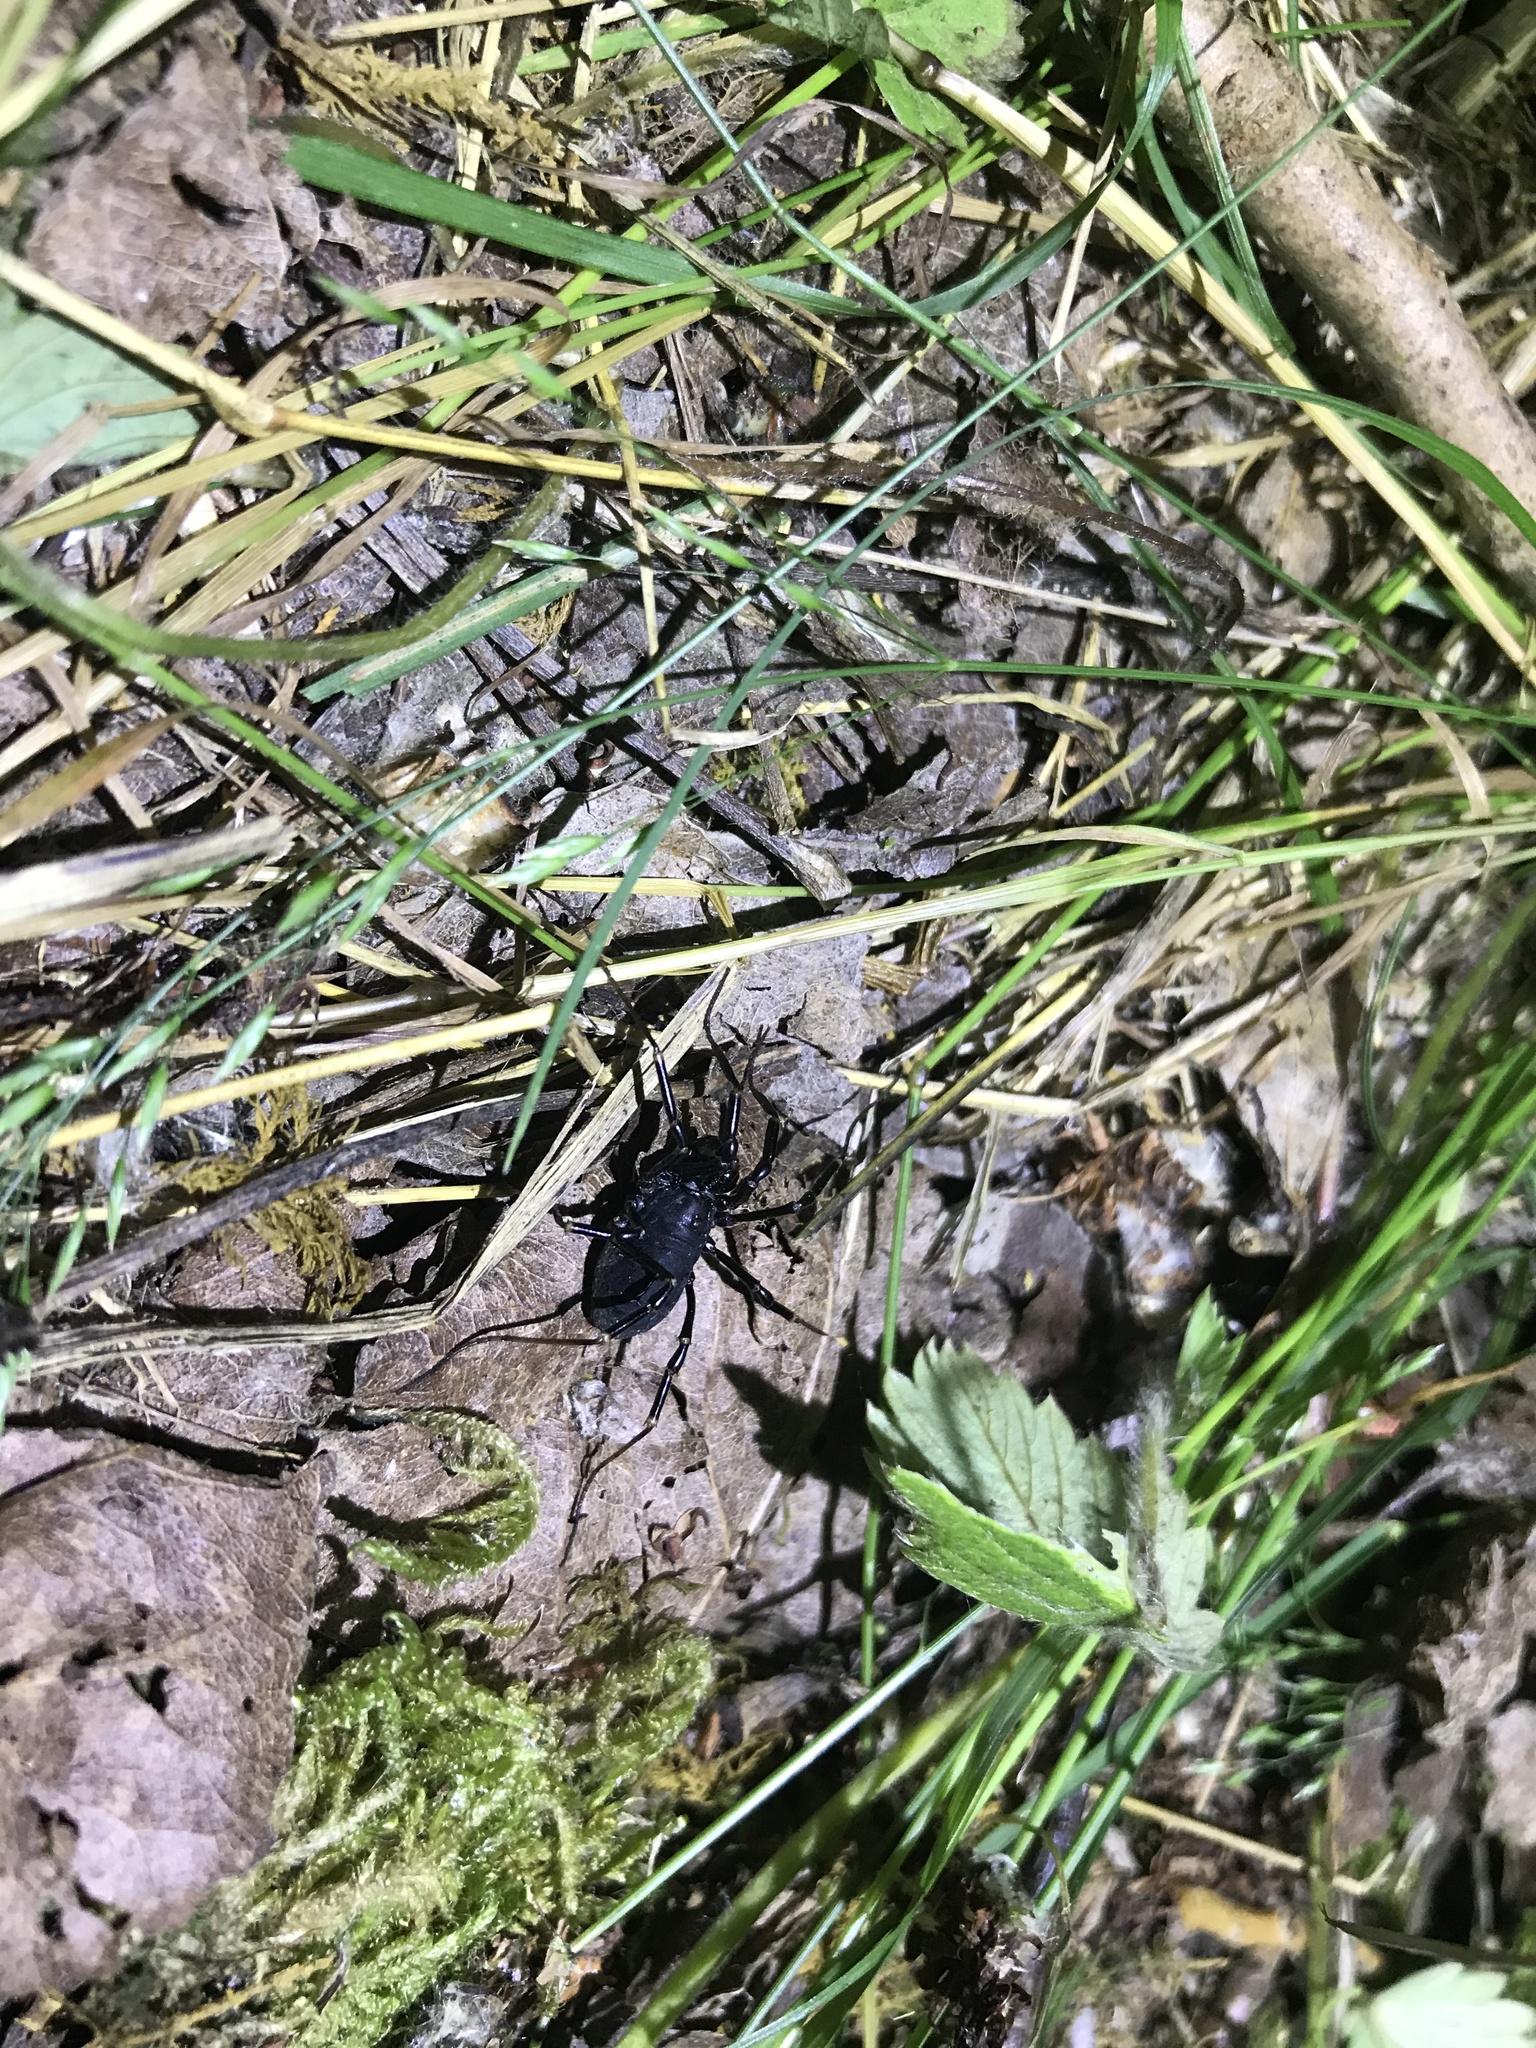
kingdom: Animalia
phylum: Arthropoda
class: Arachnida
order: Opiliones
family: Phalangiidae
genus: Egaenus
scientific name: Egaenus convexus
